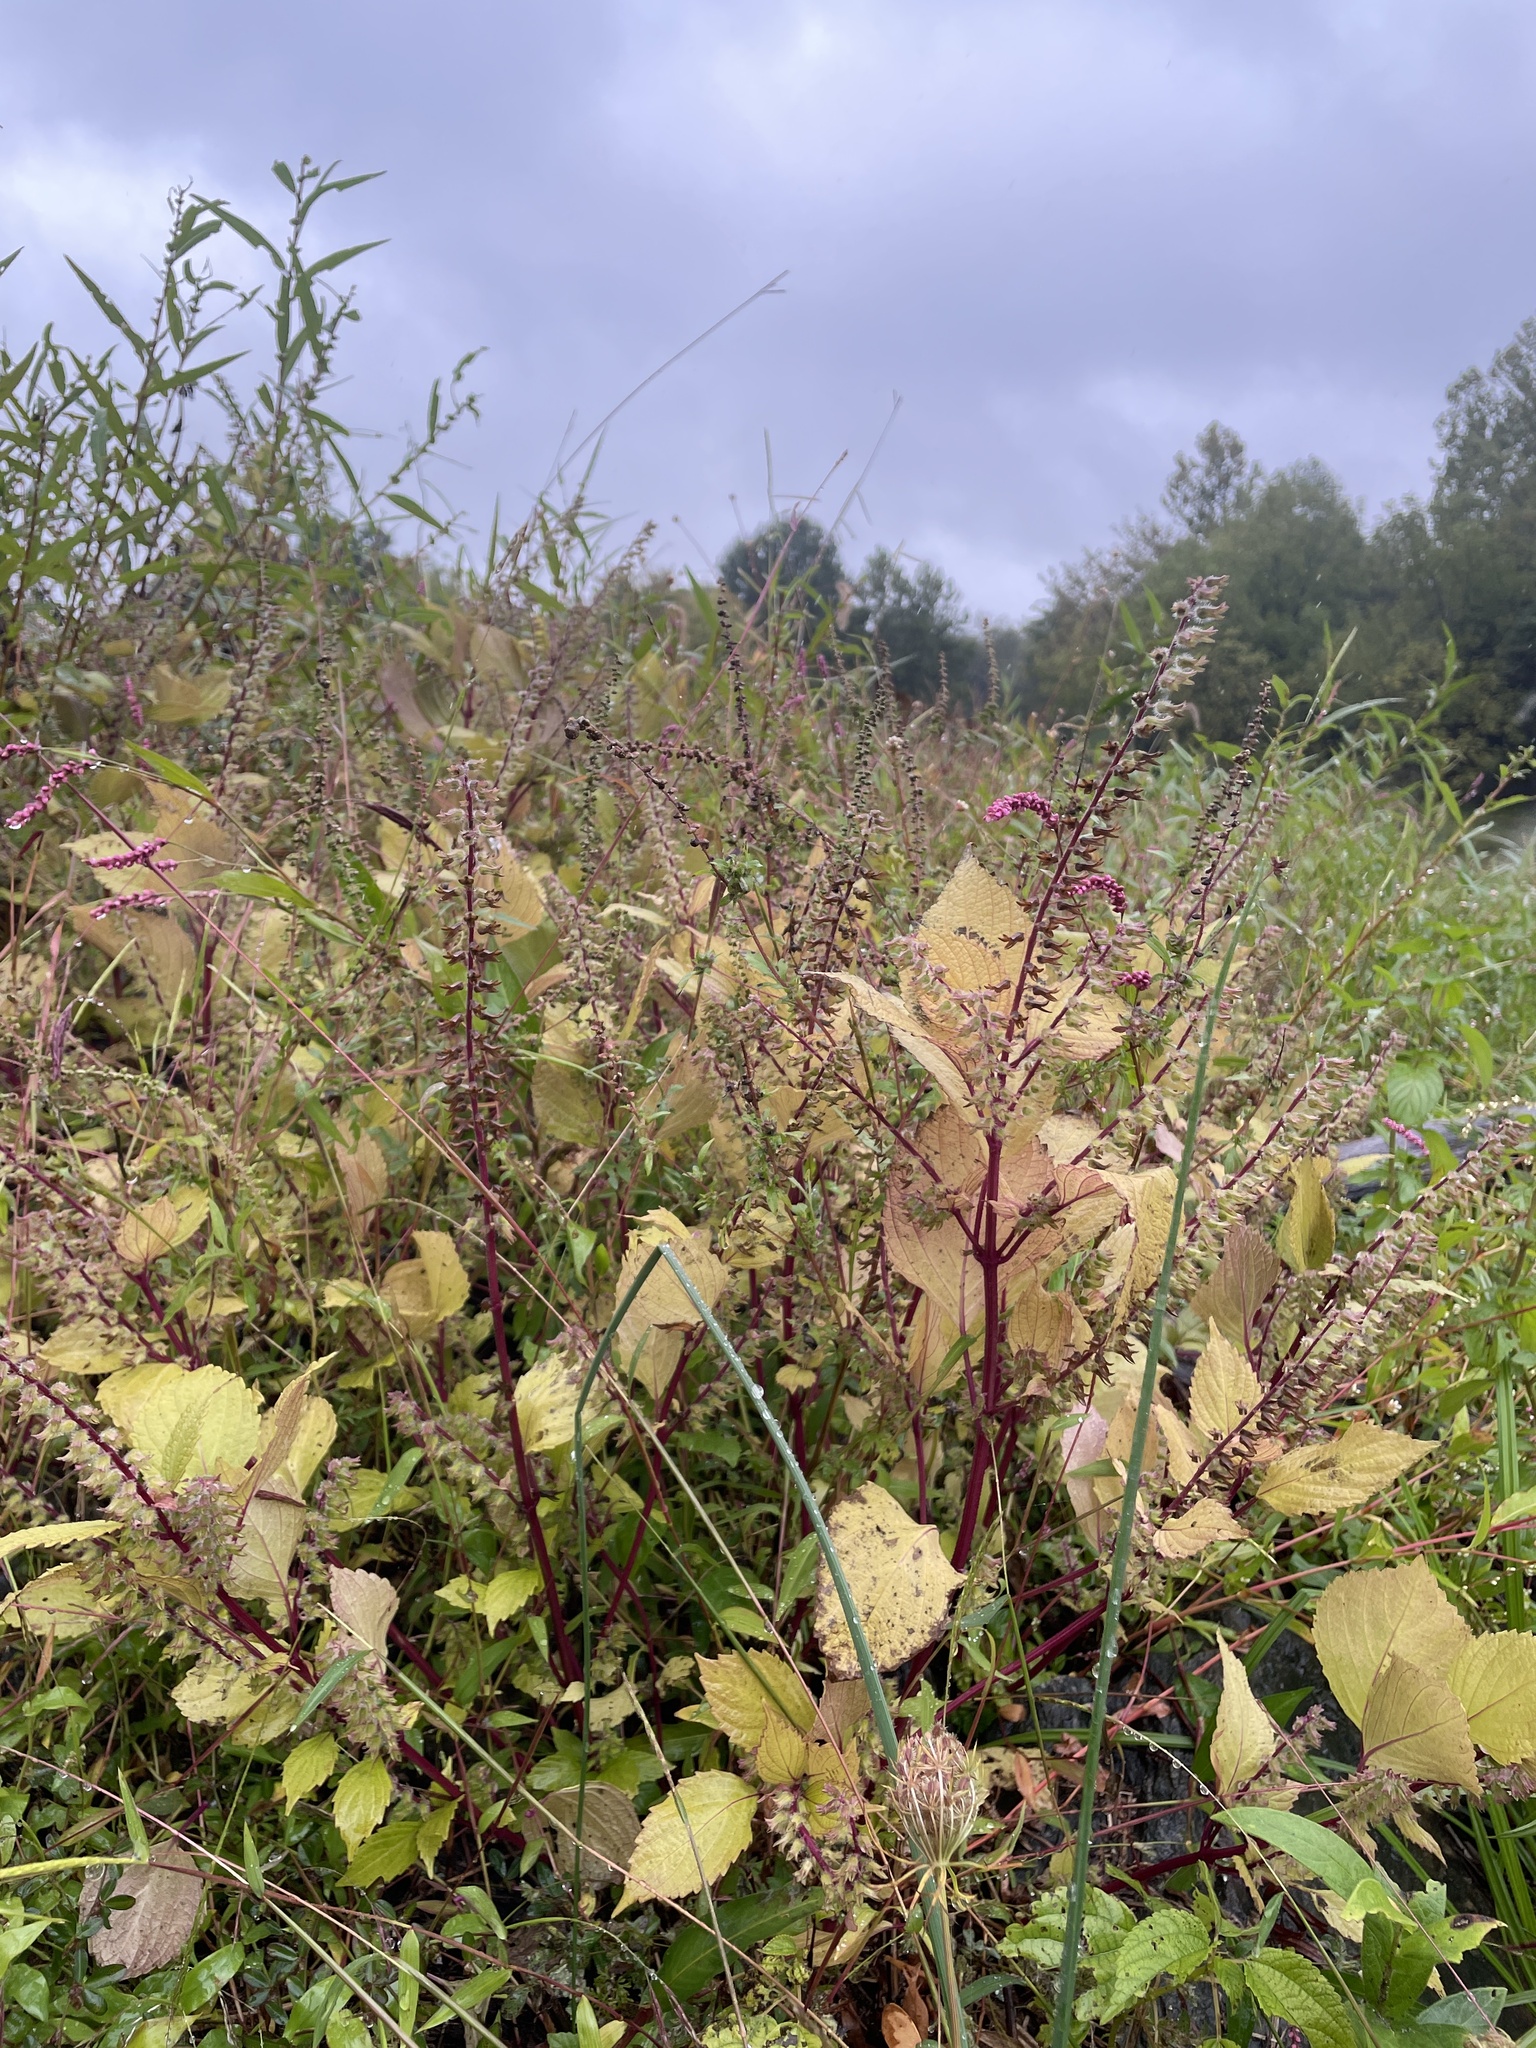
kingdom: Plantae
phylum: Tracheophyta
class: Magnoliopsida
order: Lamiales
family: Lamiaceae
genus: Perilla
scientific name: Perilla frutescens
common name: Perilla
